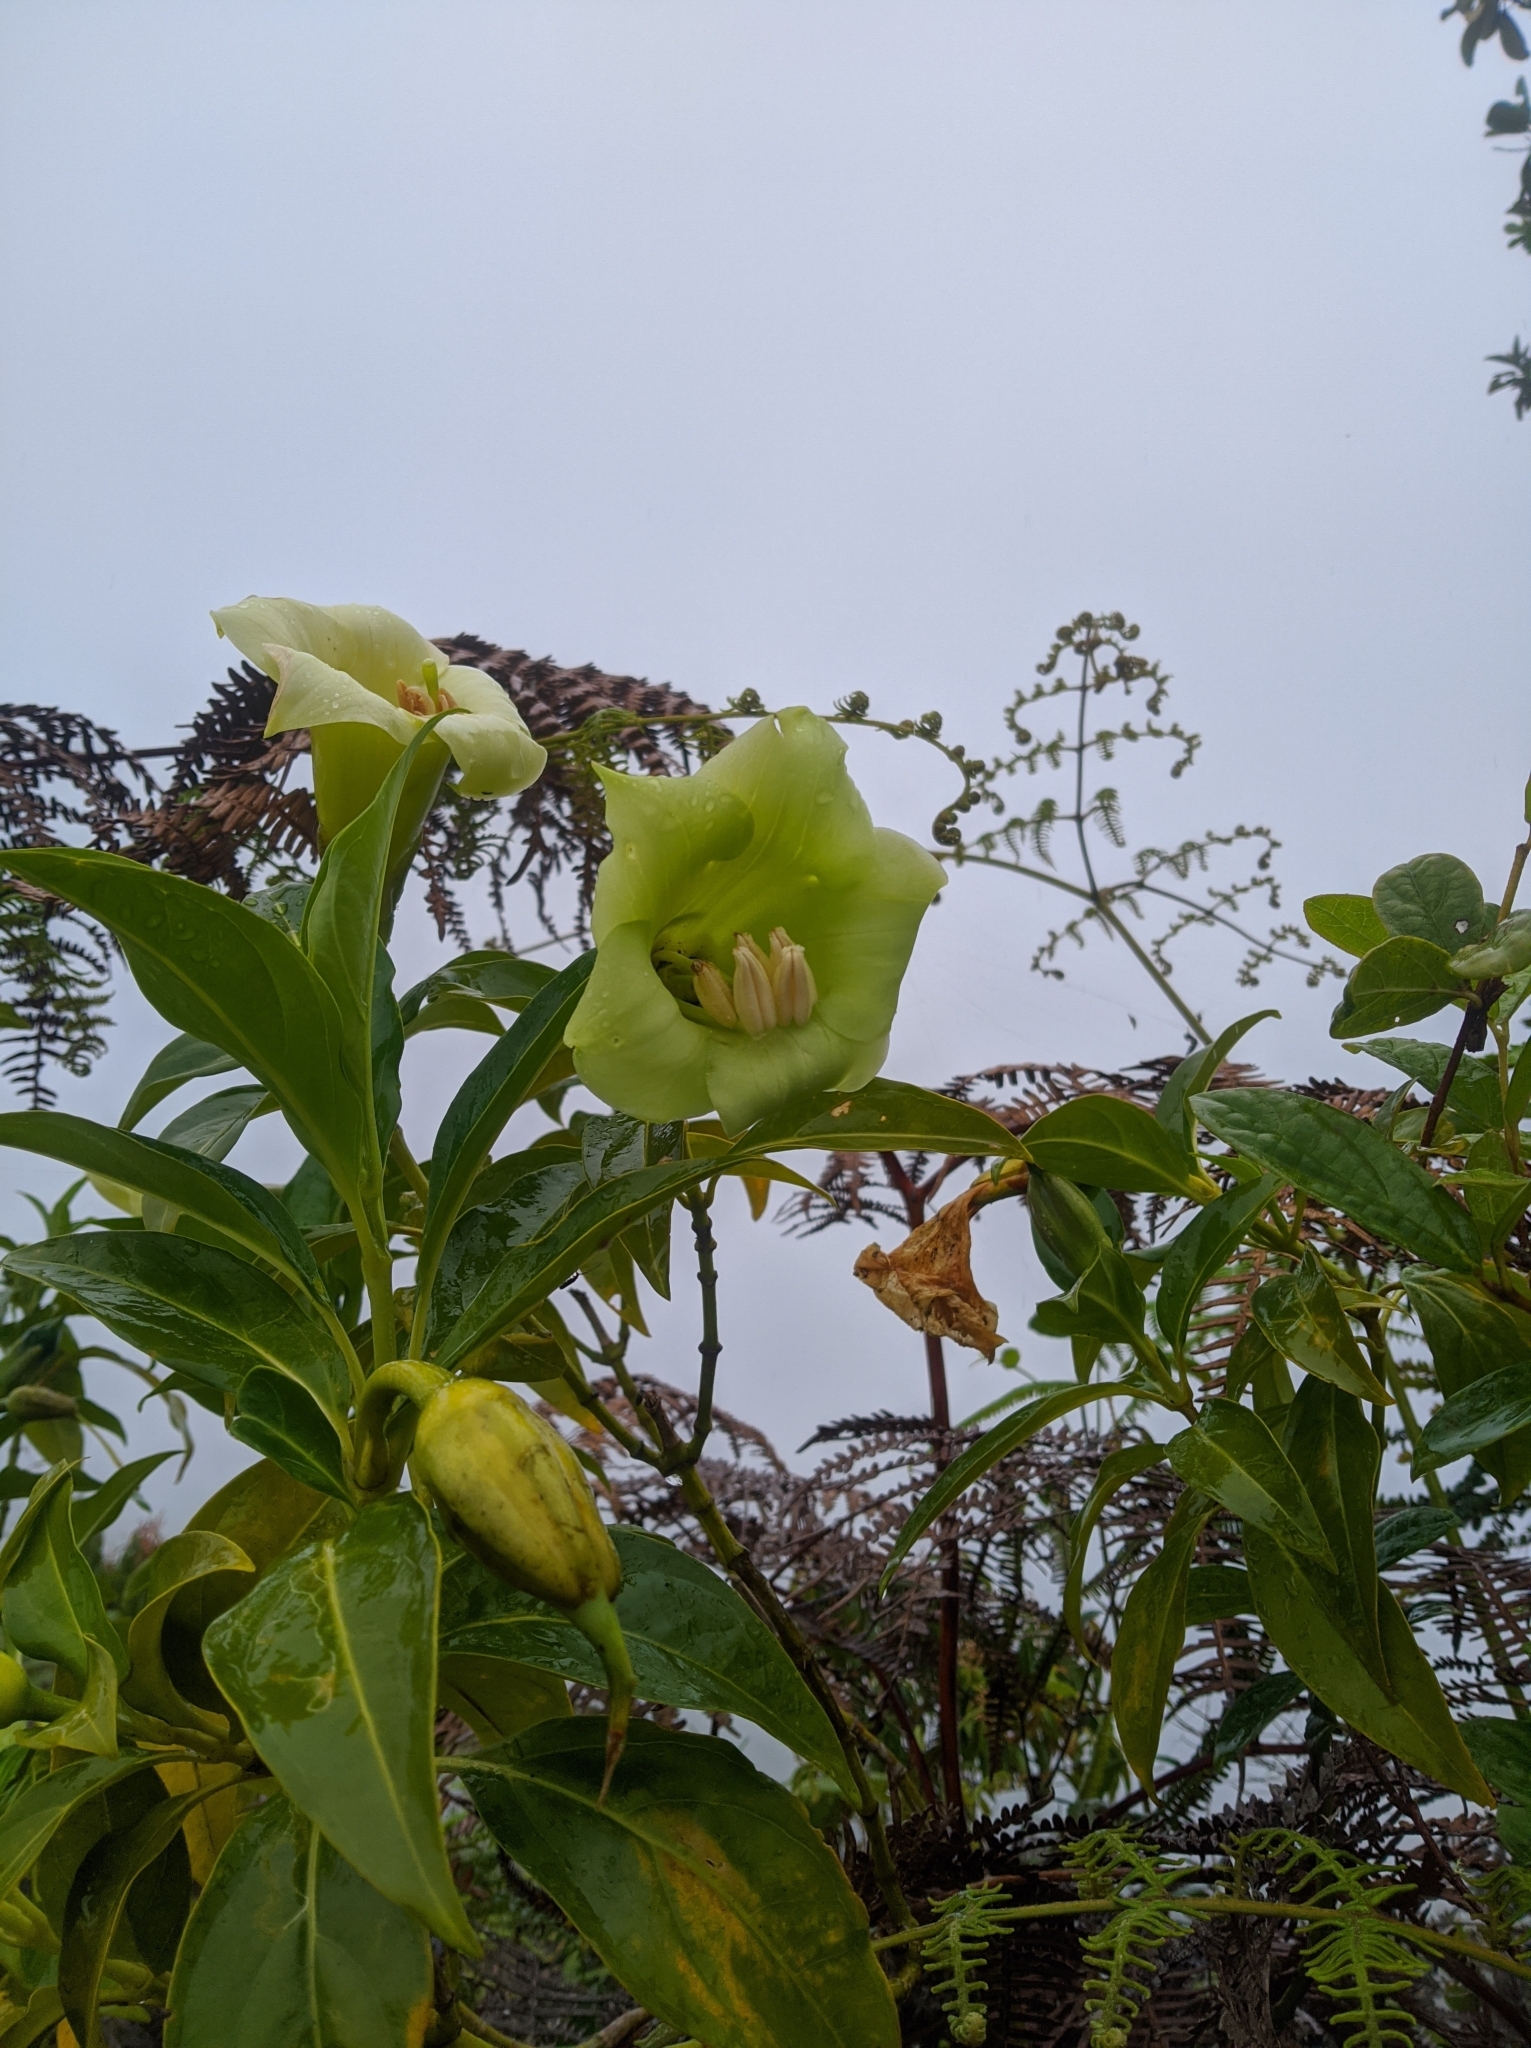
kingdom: Plantae
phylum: Tracheophyta
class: Magnoliopsida
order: Gentianales
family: Gentianaceae
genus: Symbolanthus
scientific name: Symbolanthus vasculosus
